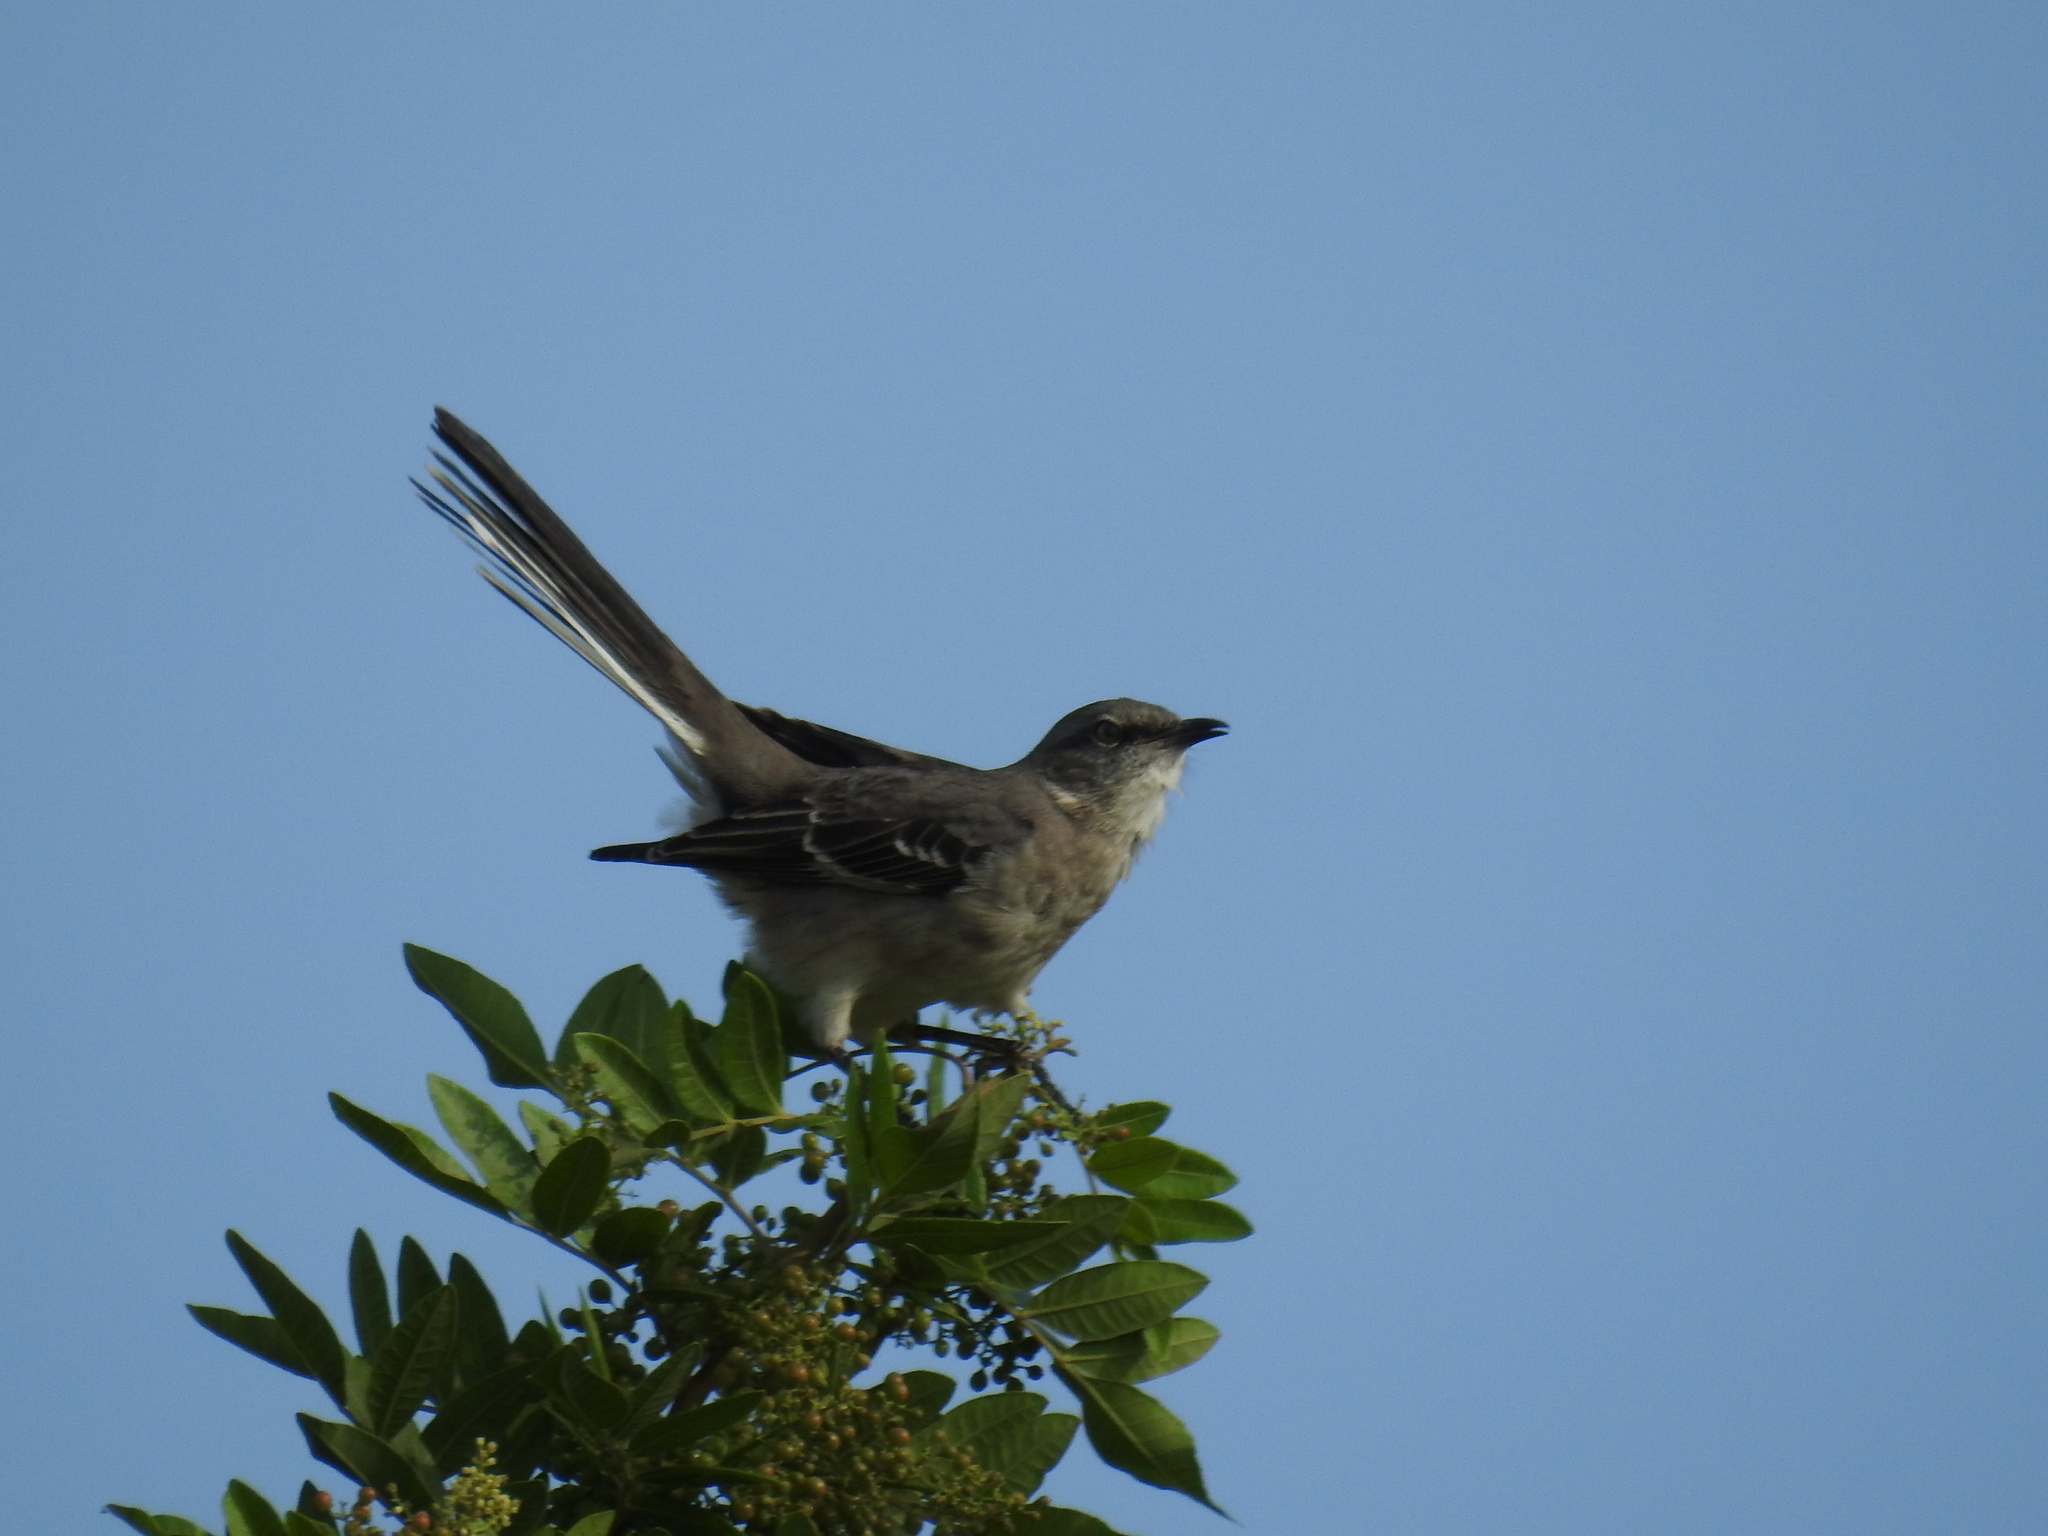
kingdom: Animalia
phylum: Chordata
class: Aves
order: Passeriformes
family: Mimidae
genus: Mimus
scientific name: Mimus polyglottos
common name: Northern mockingbird
